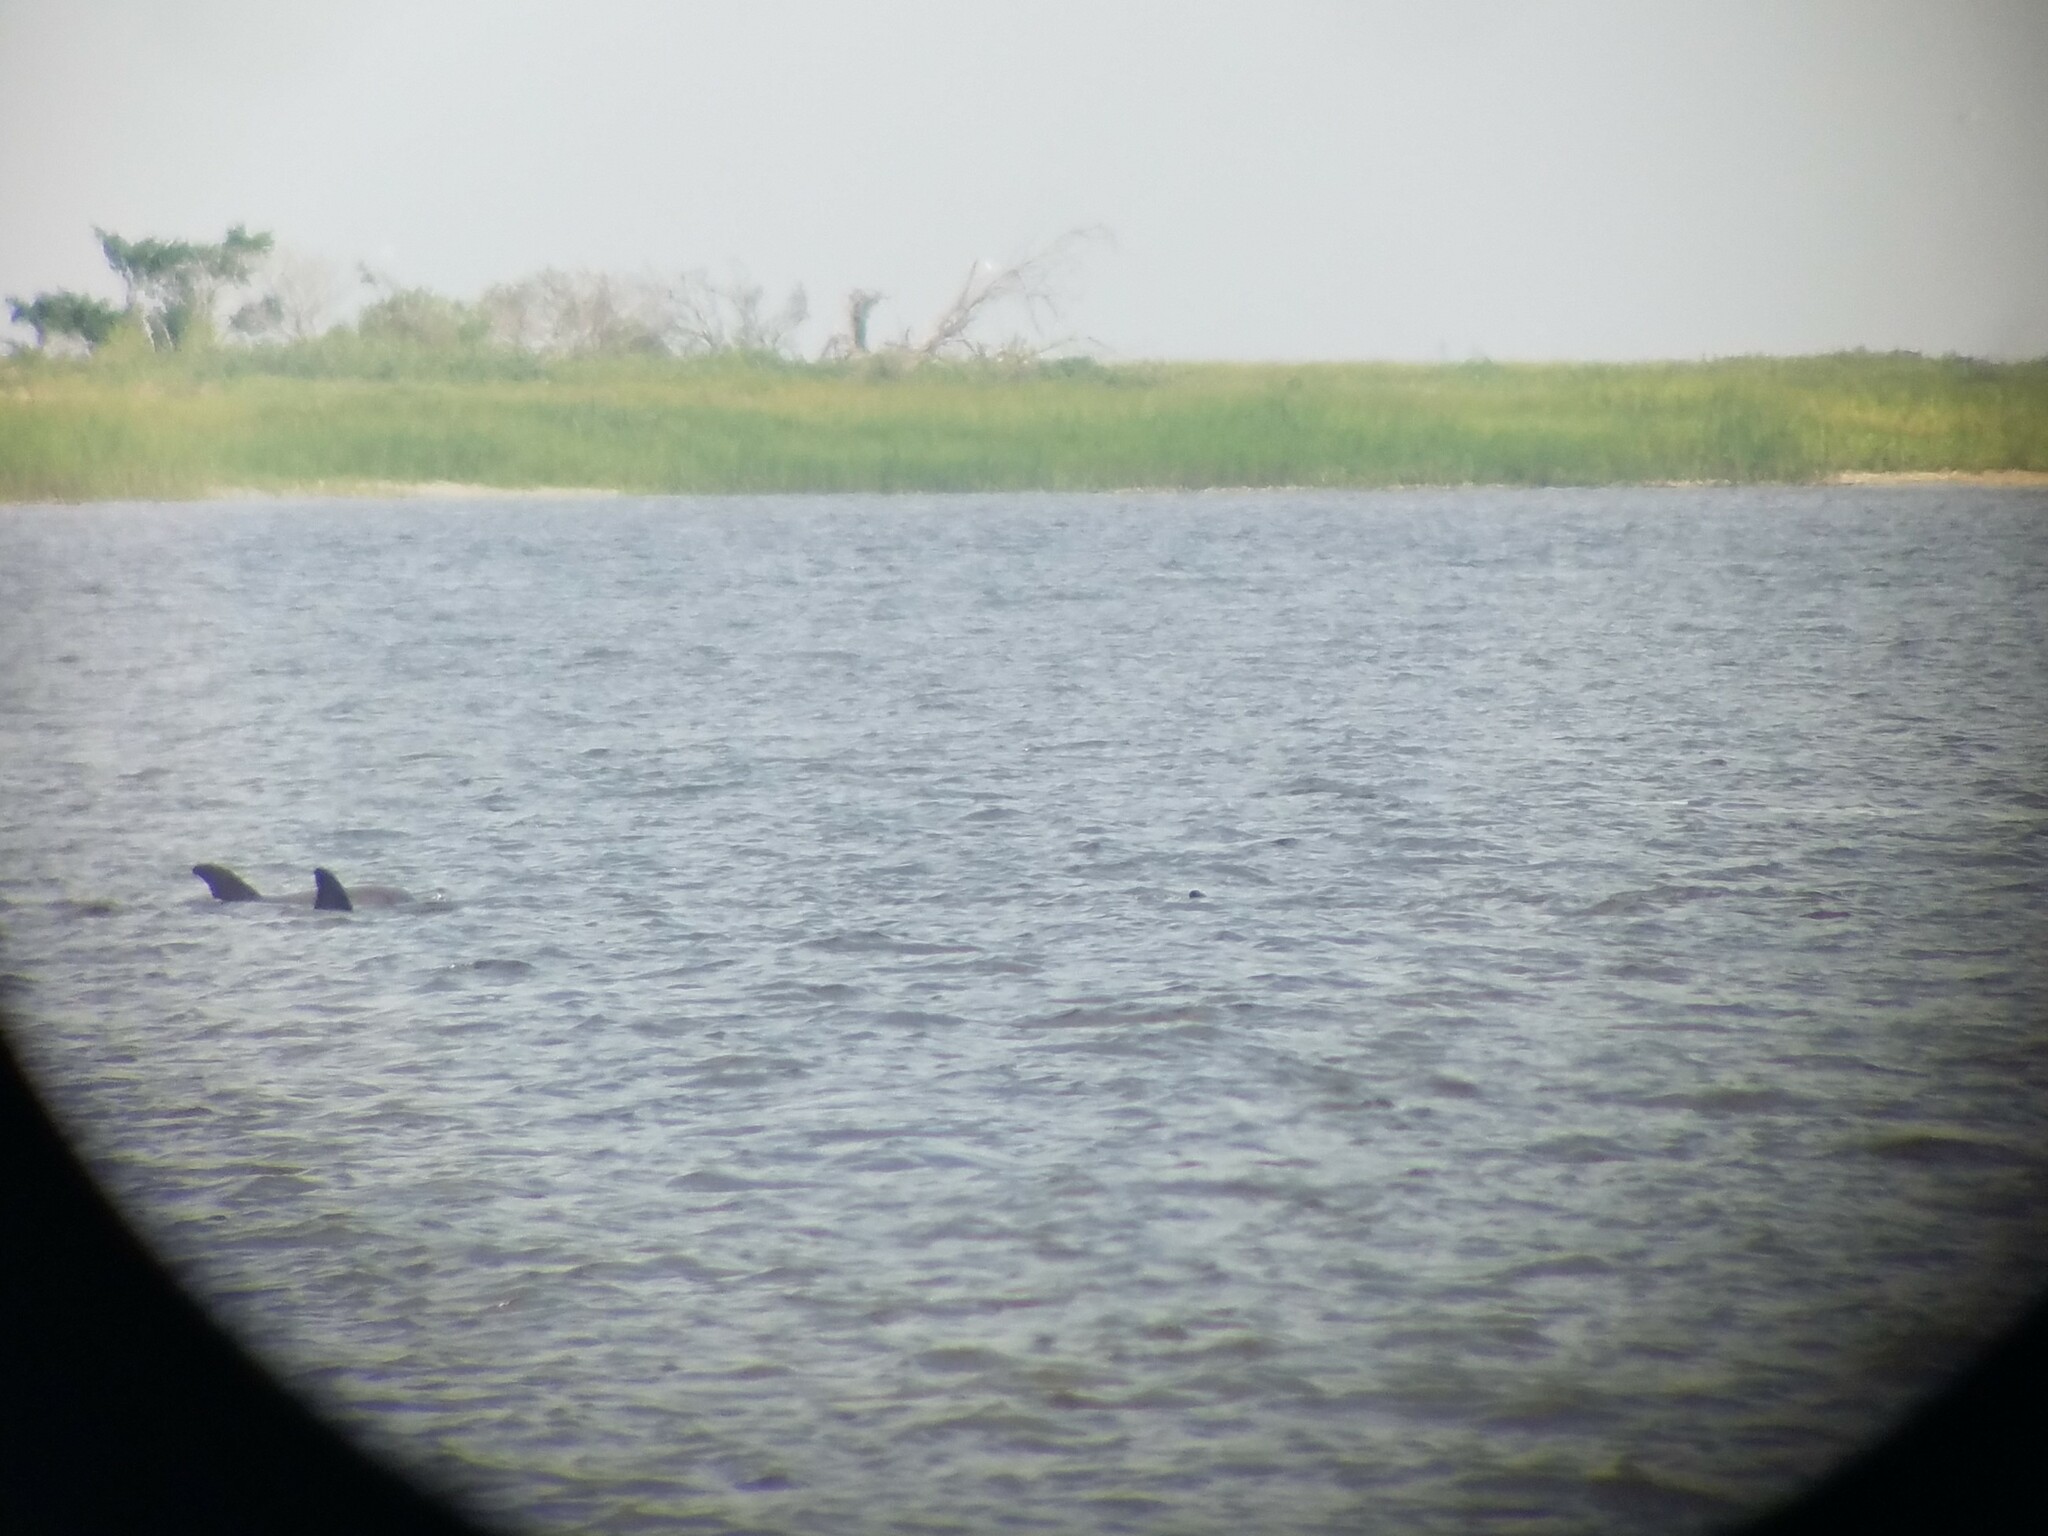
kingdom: Animalia
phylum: Chordata
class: Mammalia
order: Cetacea
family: Delphinidae
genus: Tursiops
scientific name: Tursiops truncatus
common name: Bottlenose dolphin
